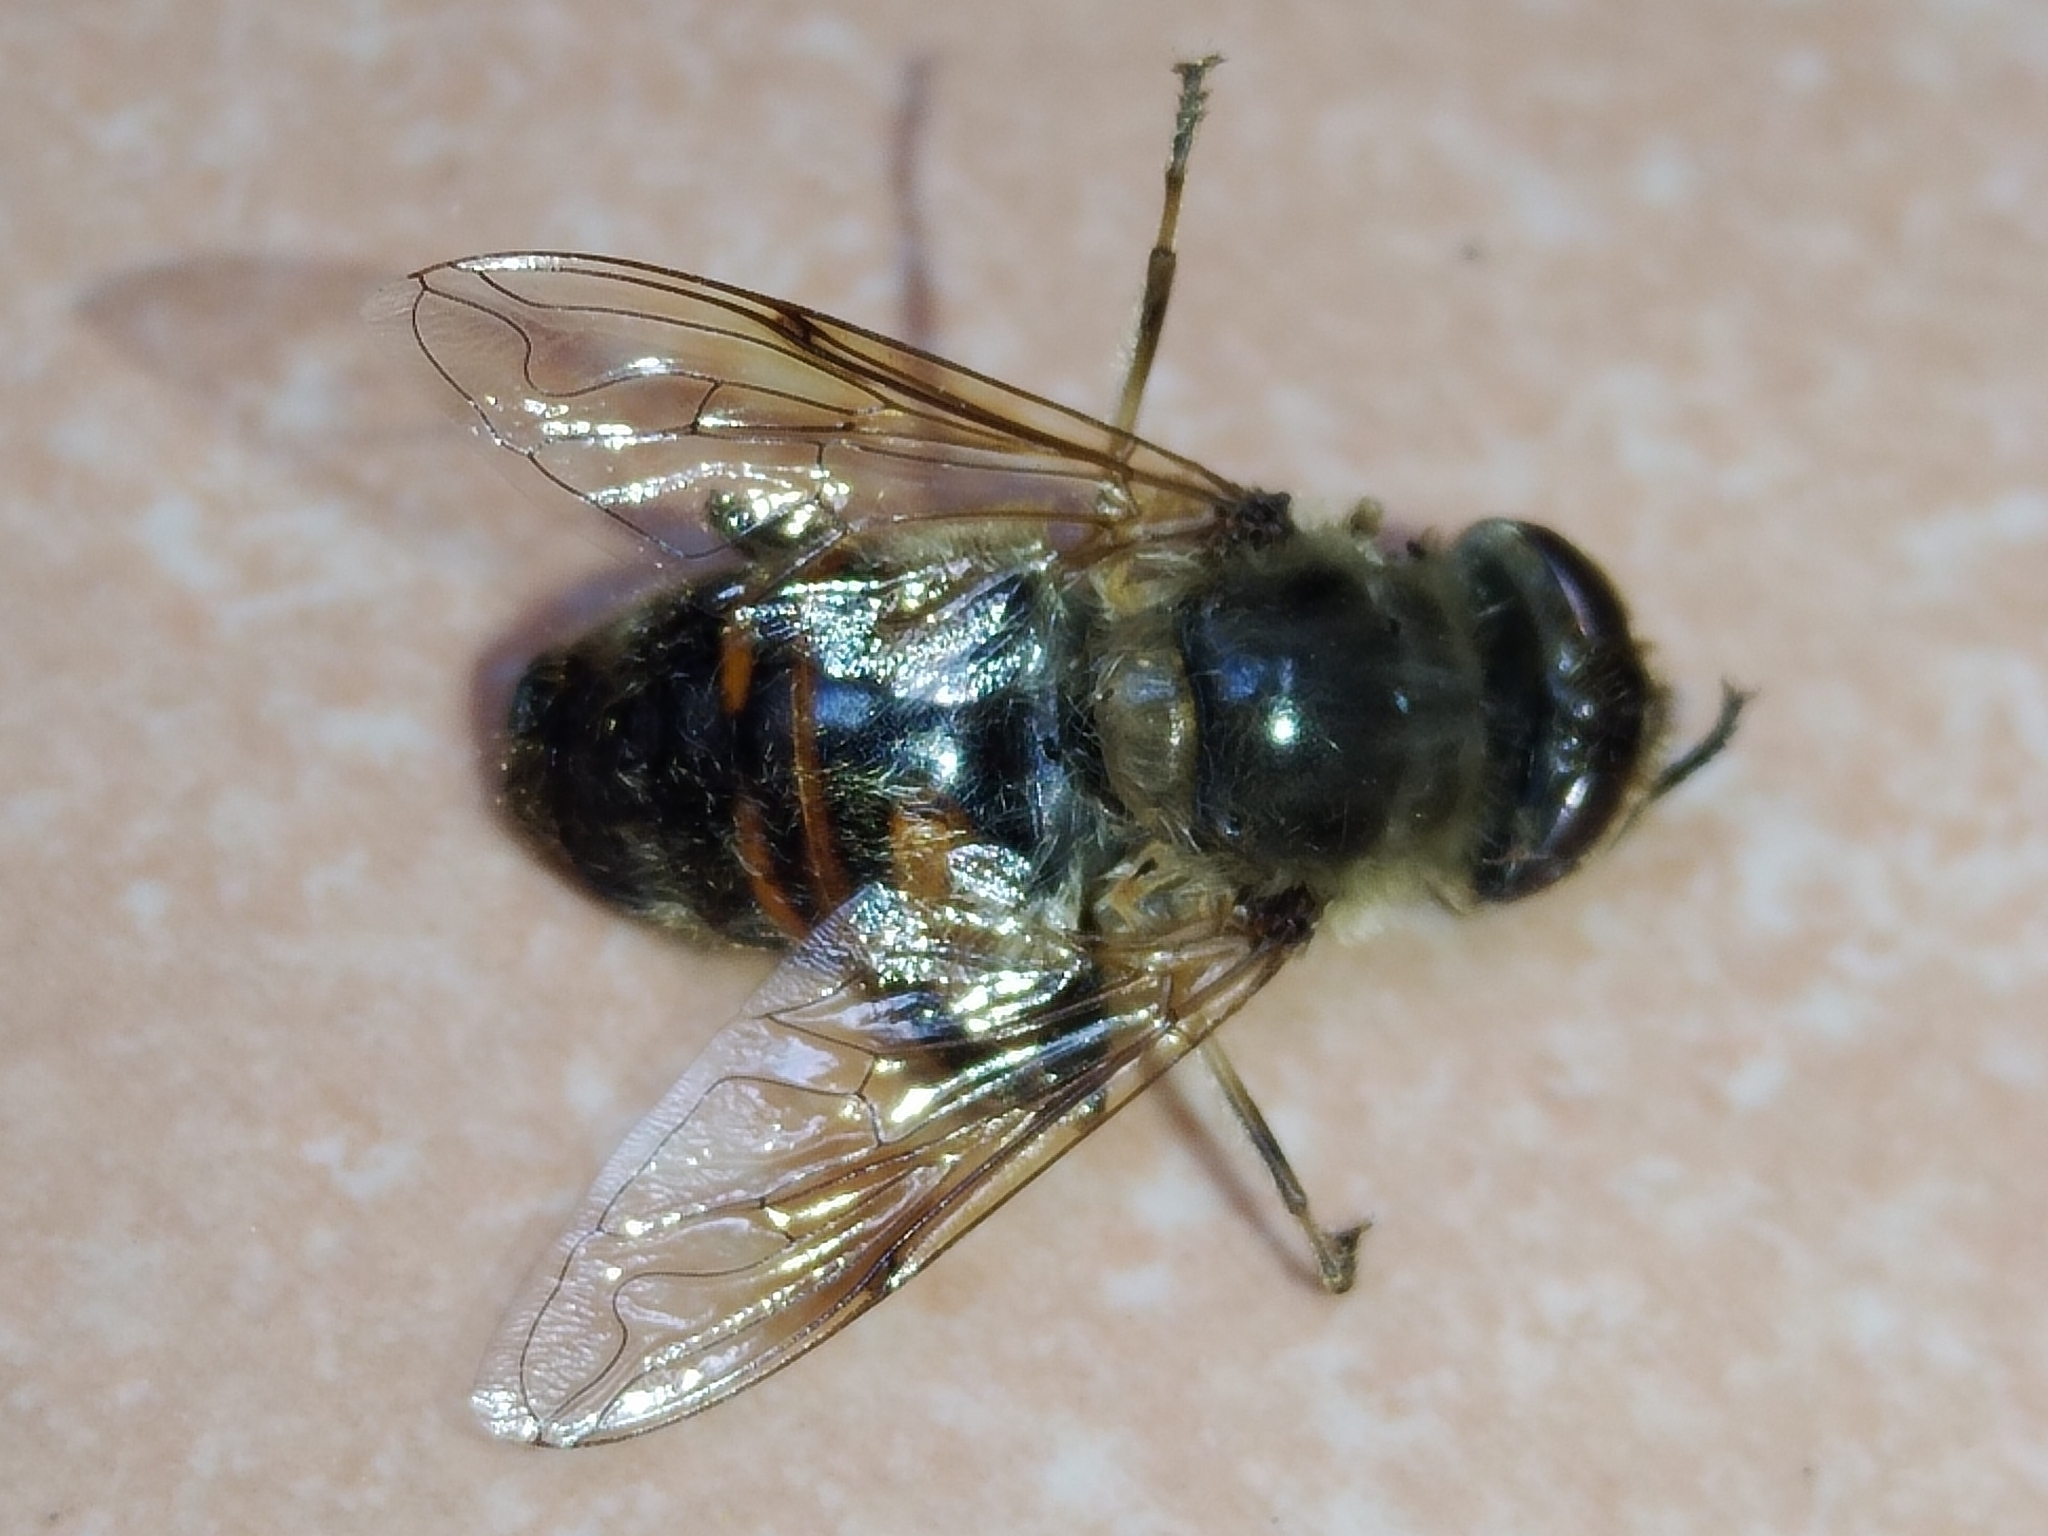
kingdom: Animalia
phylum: Arthropoda
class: Insecta
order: Diptera
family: Syrphidae
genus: Eristalis
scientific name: Eristalis tenax
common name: Drone fly
